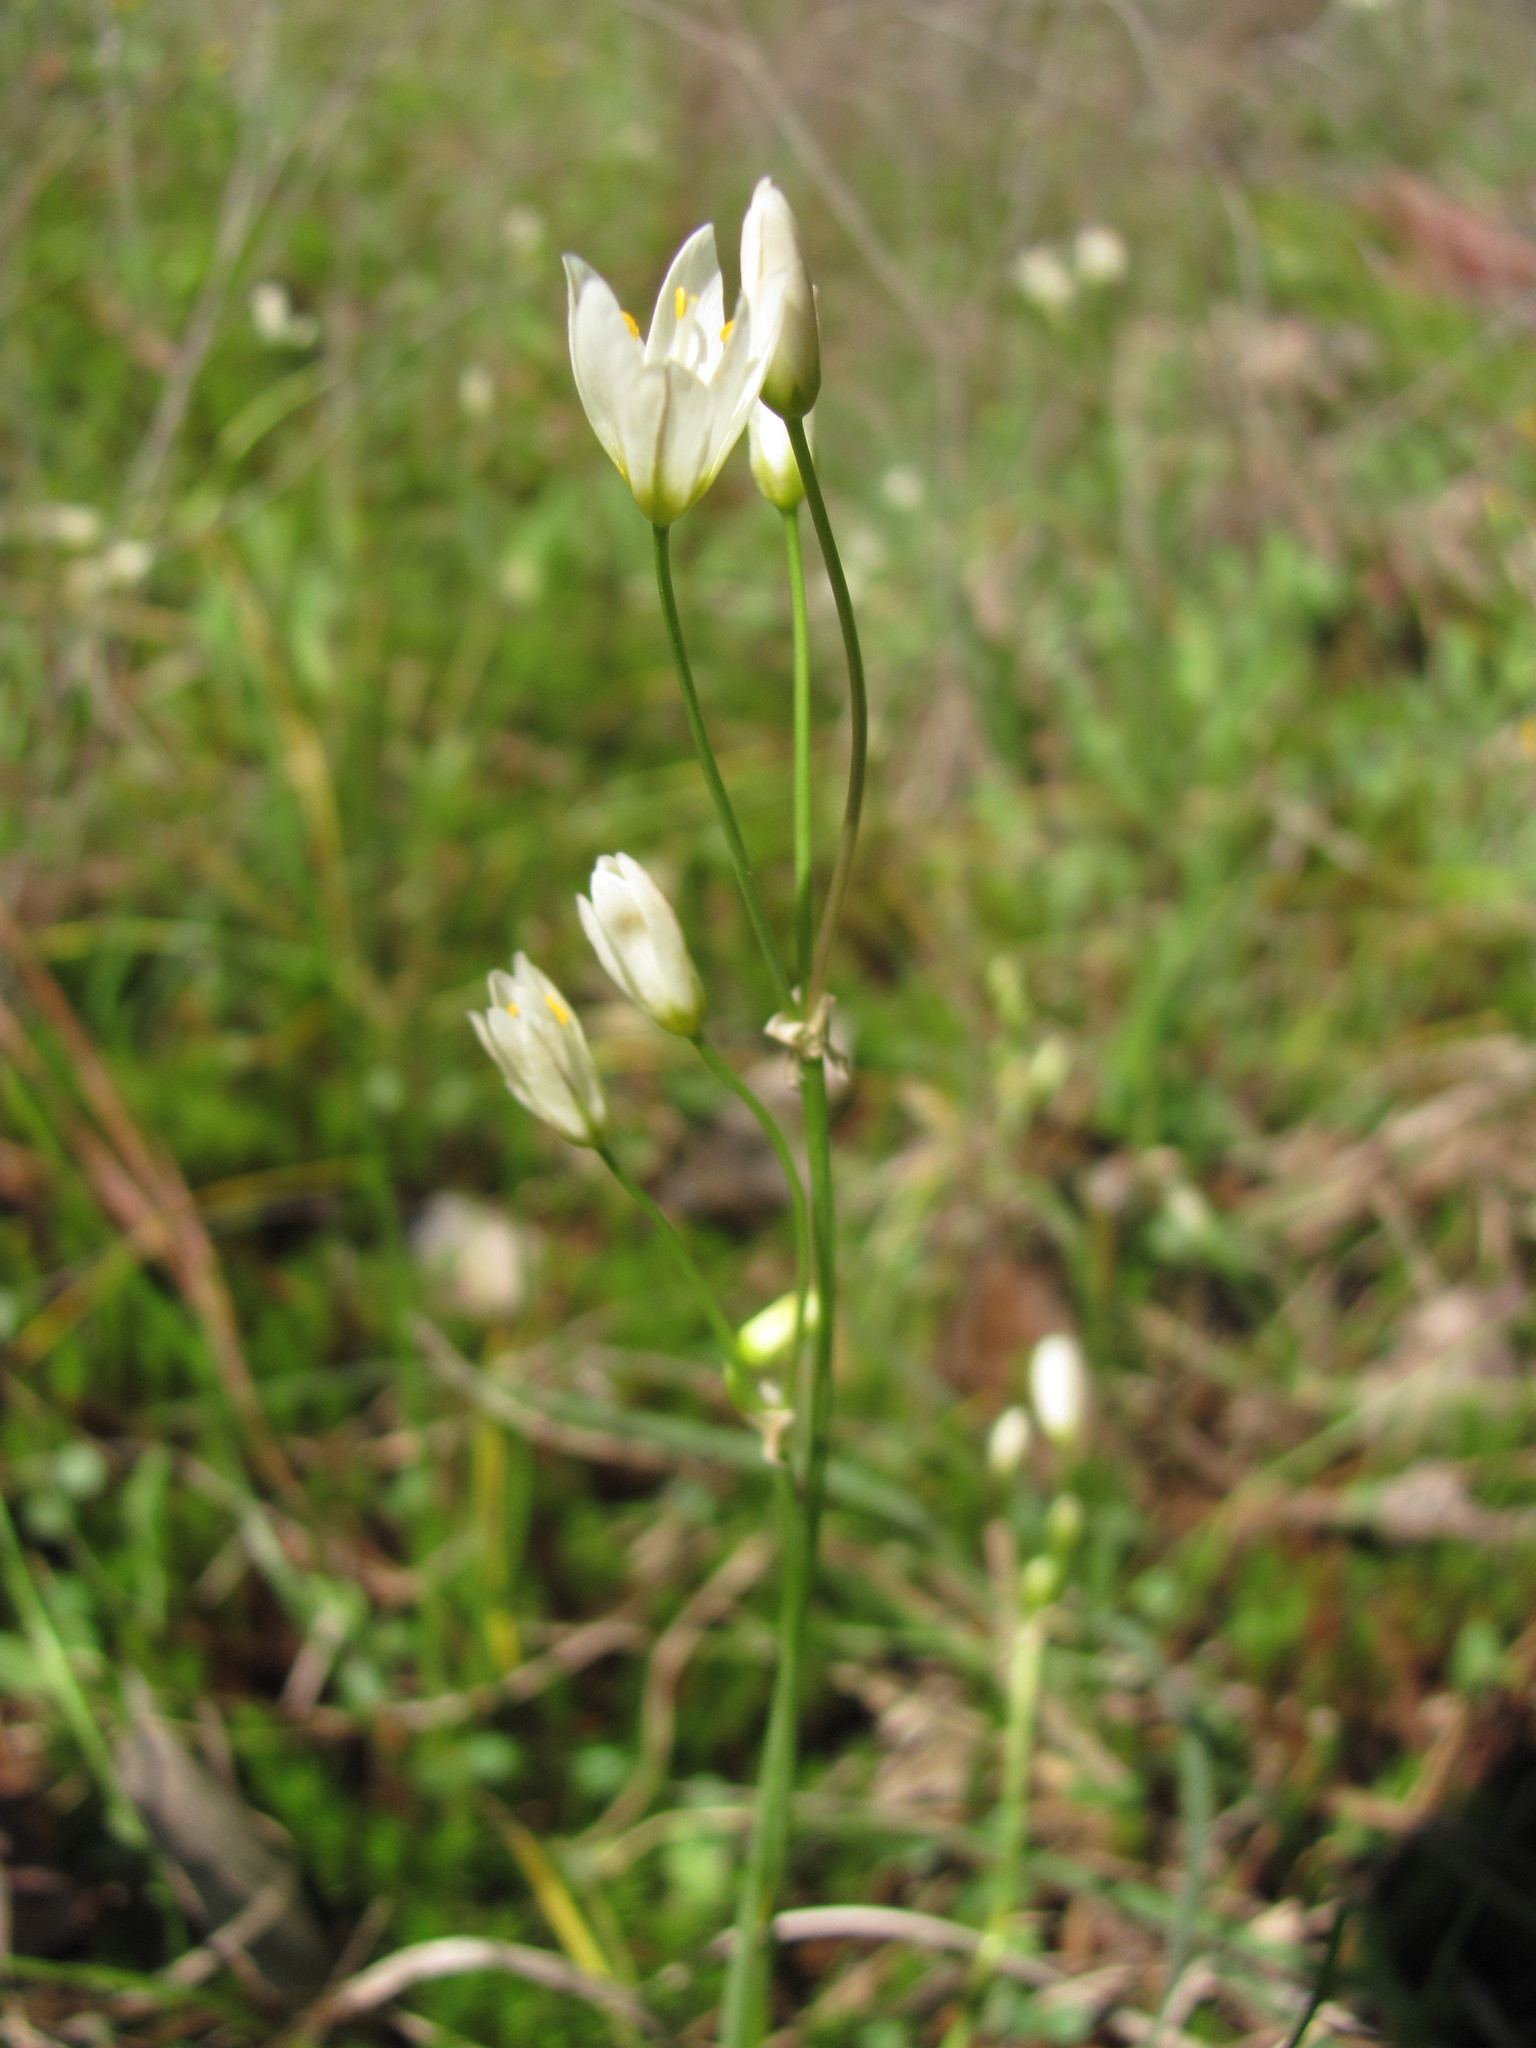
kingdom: Plantae
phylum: Tracheophyta
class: Liliopsida
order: Asparagales
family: Amaryllidaceae
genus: Nothoscordum
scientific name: Nothoscordum bivalve
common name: Crow-poison
